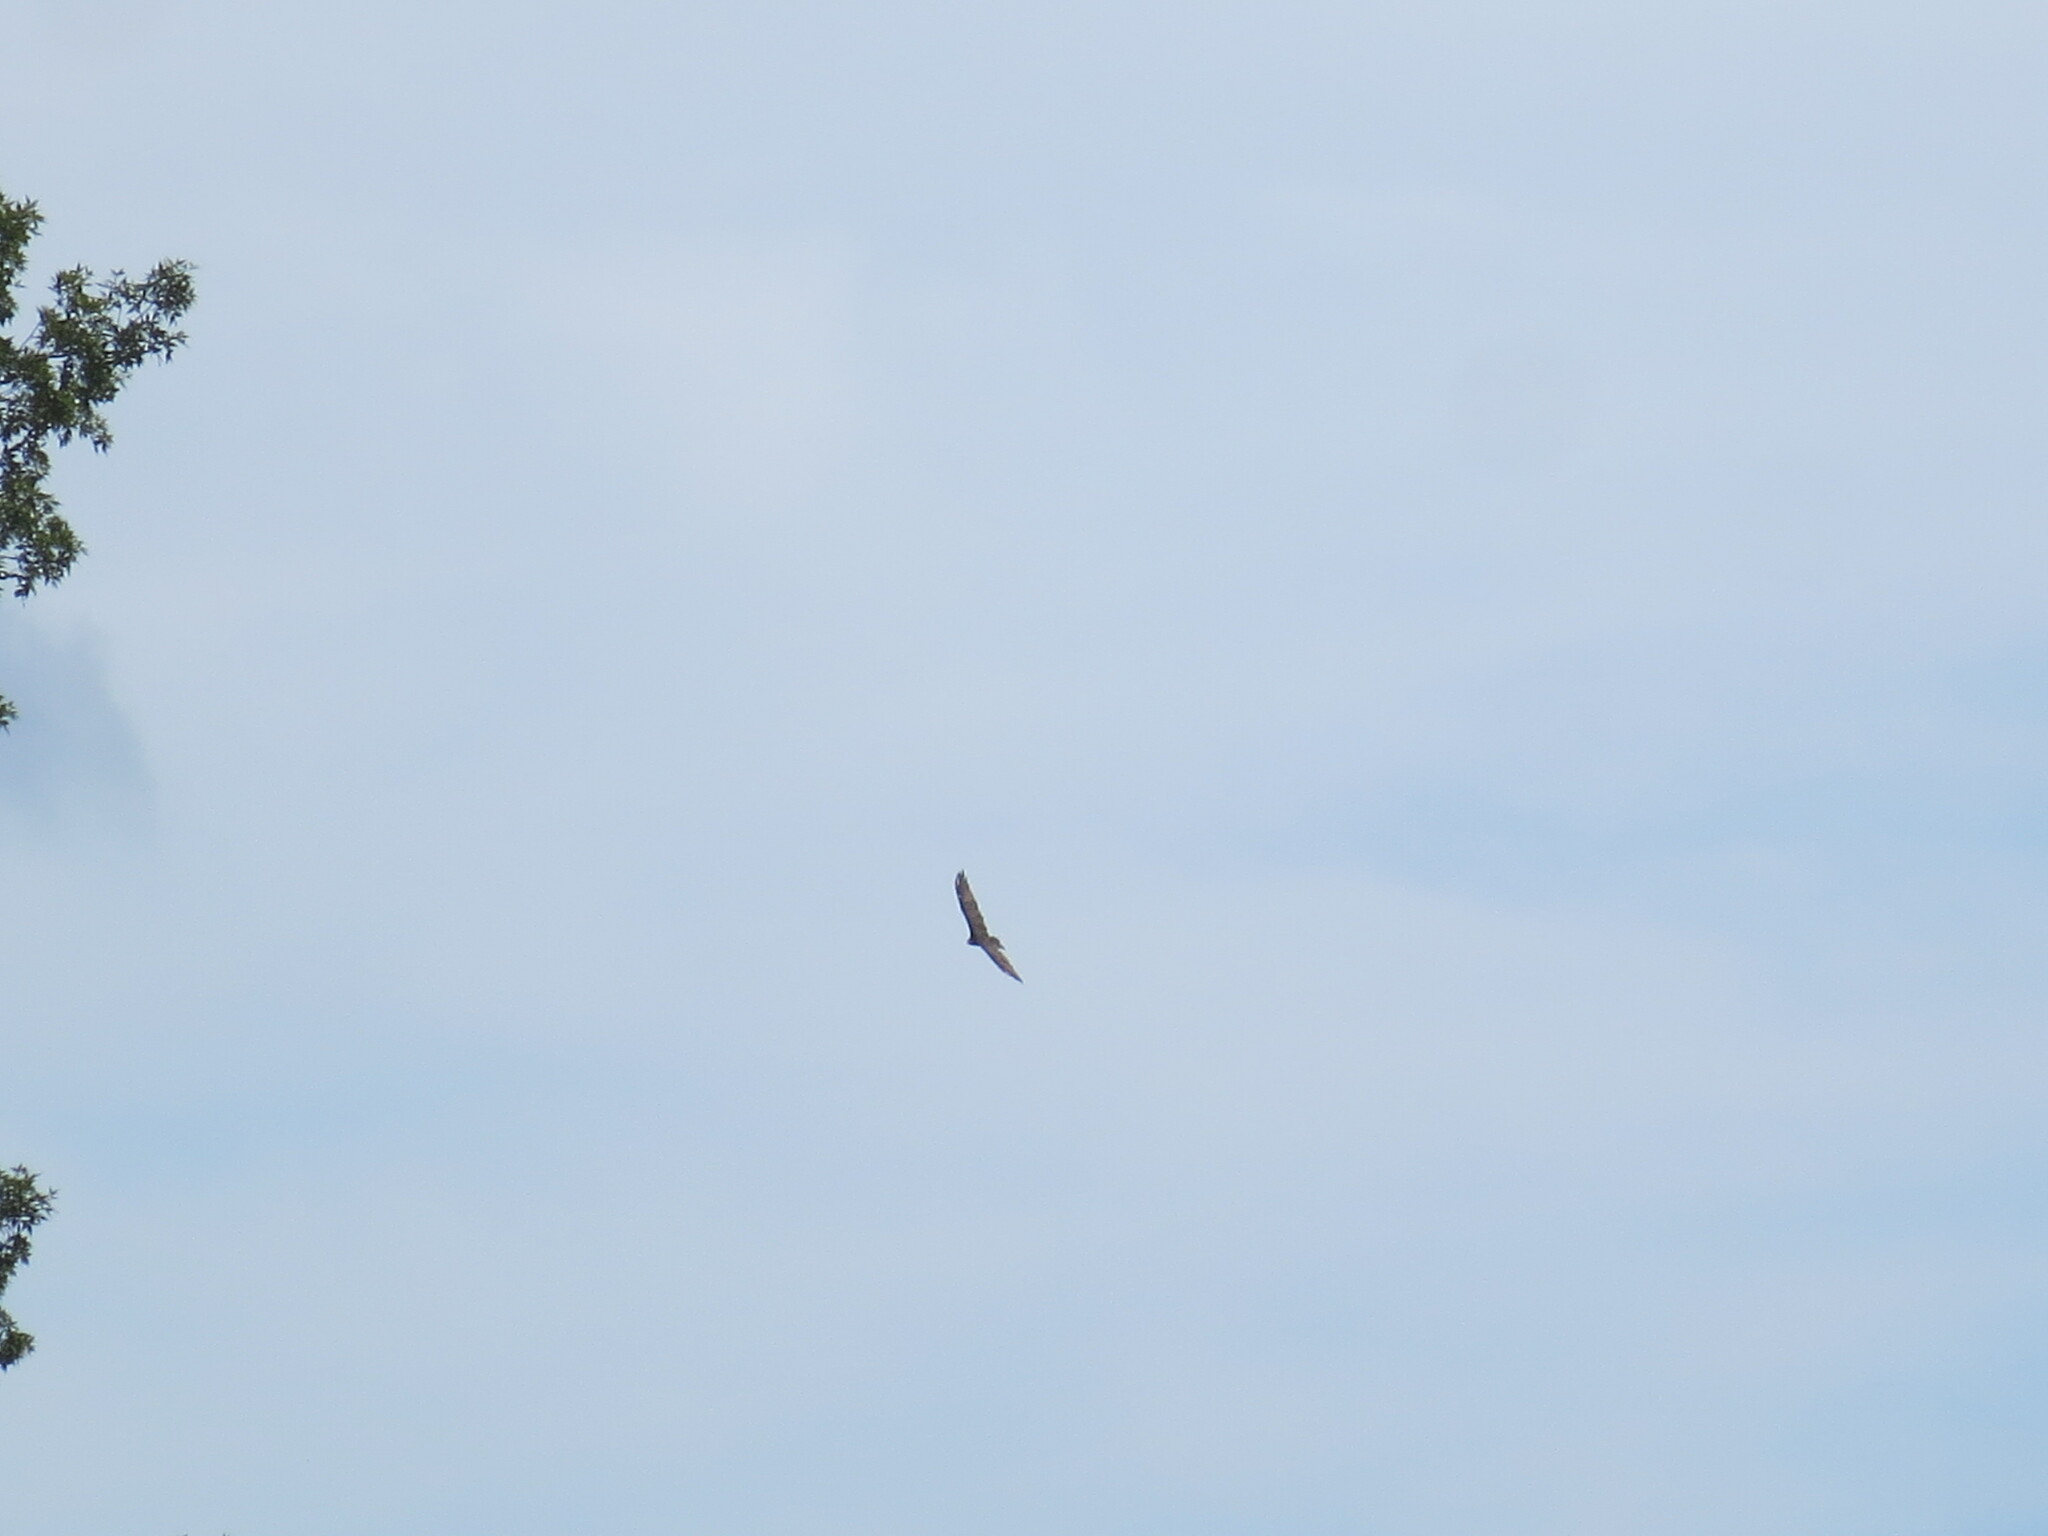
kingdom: Animalia
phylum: Chordata
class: Aves
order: Accipitriformes
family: Cathartidae
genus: Cathartes
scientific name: Cathartes aura
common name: Turkey vulture
